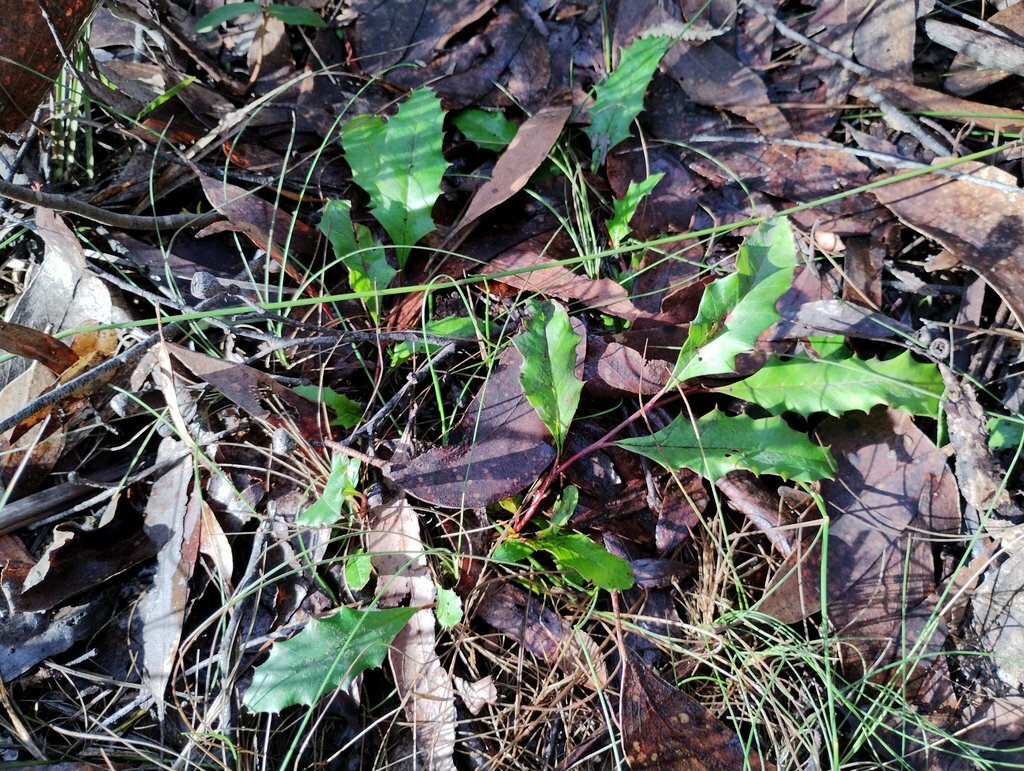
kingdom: Plantae
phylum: Tracheophyta
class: Magnoliopsida
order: Proteales
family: Proteaceae
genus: Grevillea
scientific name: Grevillea repens
